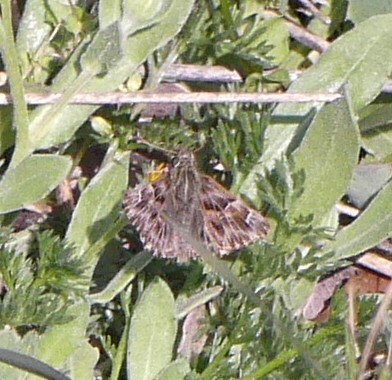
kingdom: Animalia
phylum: Arthropoda
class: Insecta
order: Lepidoptera
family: Hesperiidae
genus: Carcharodus
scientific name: Carcharodus alceae
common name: Mallow skipper
